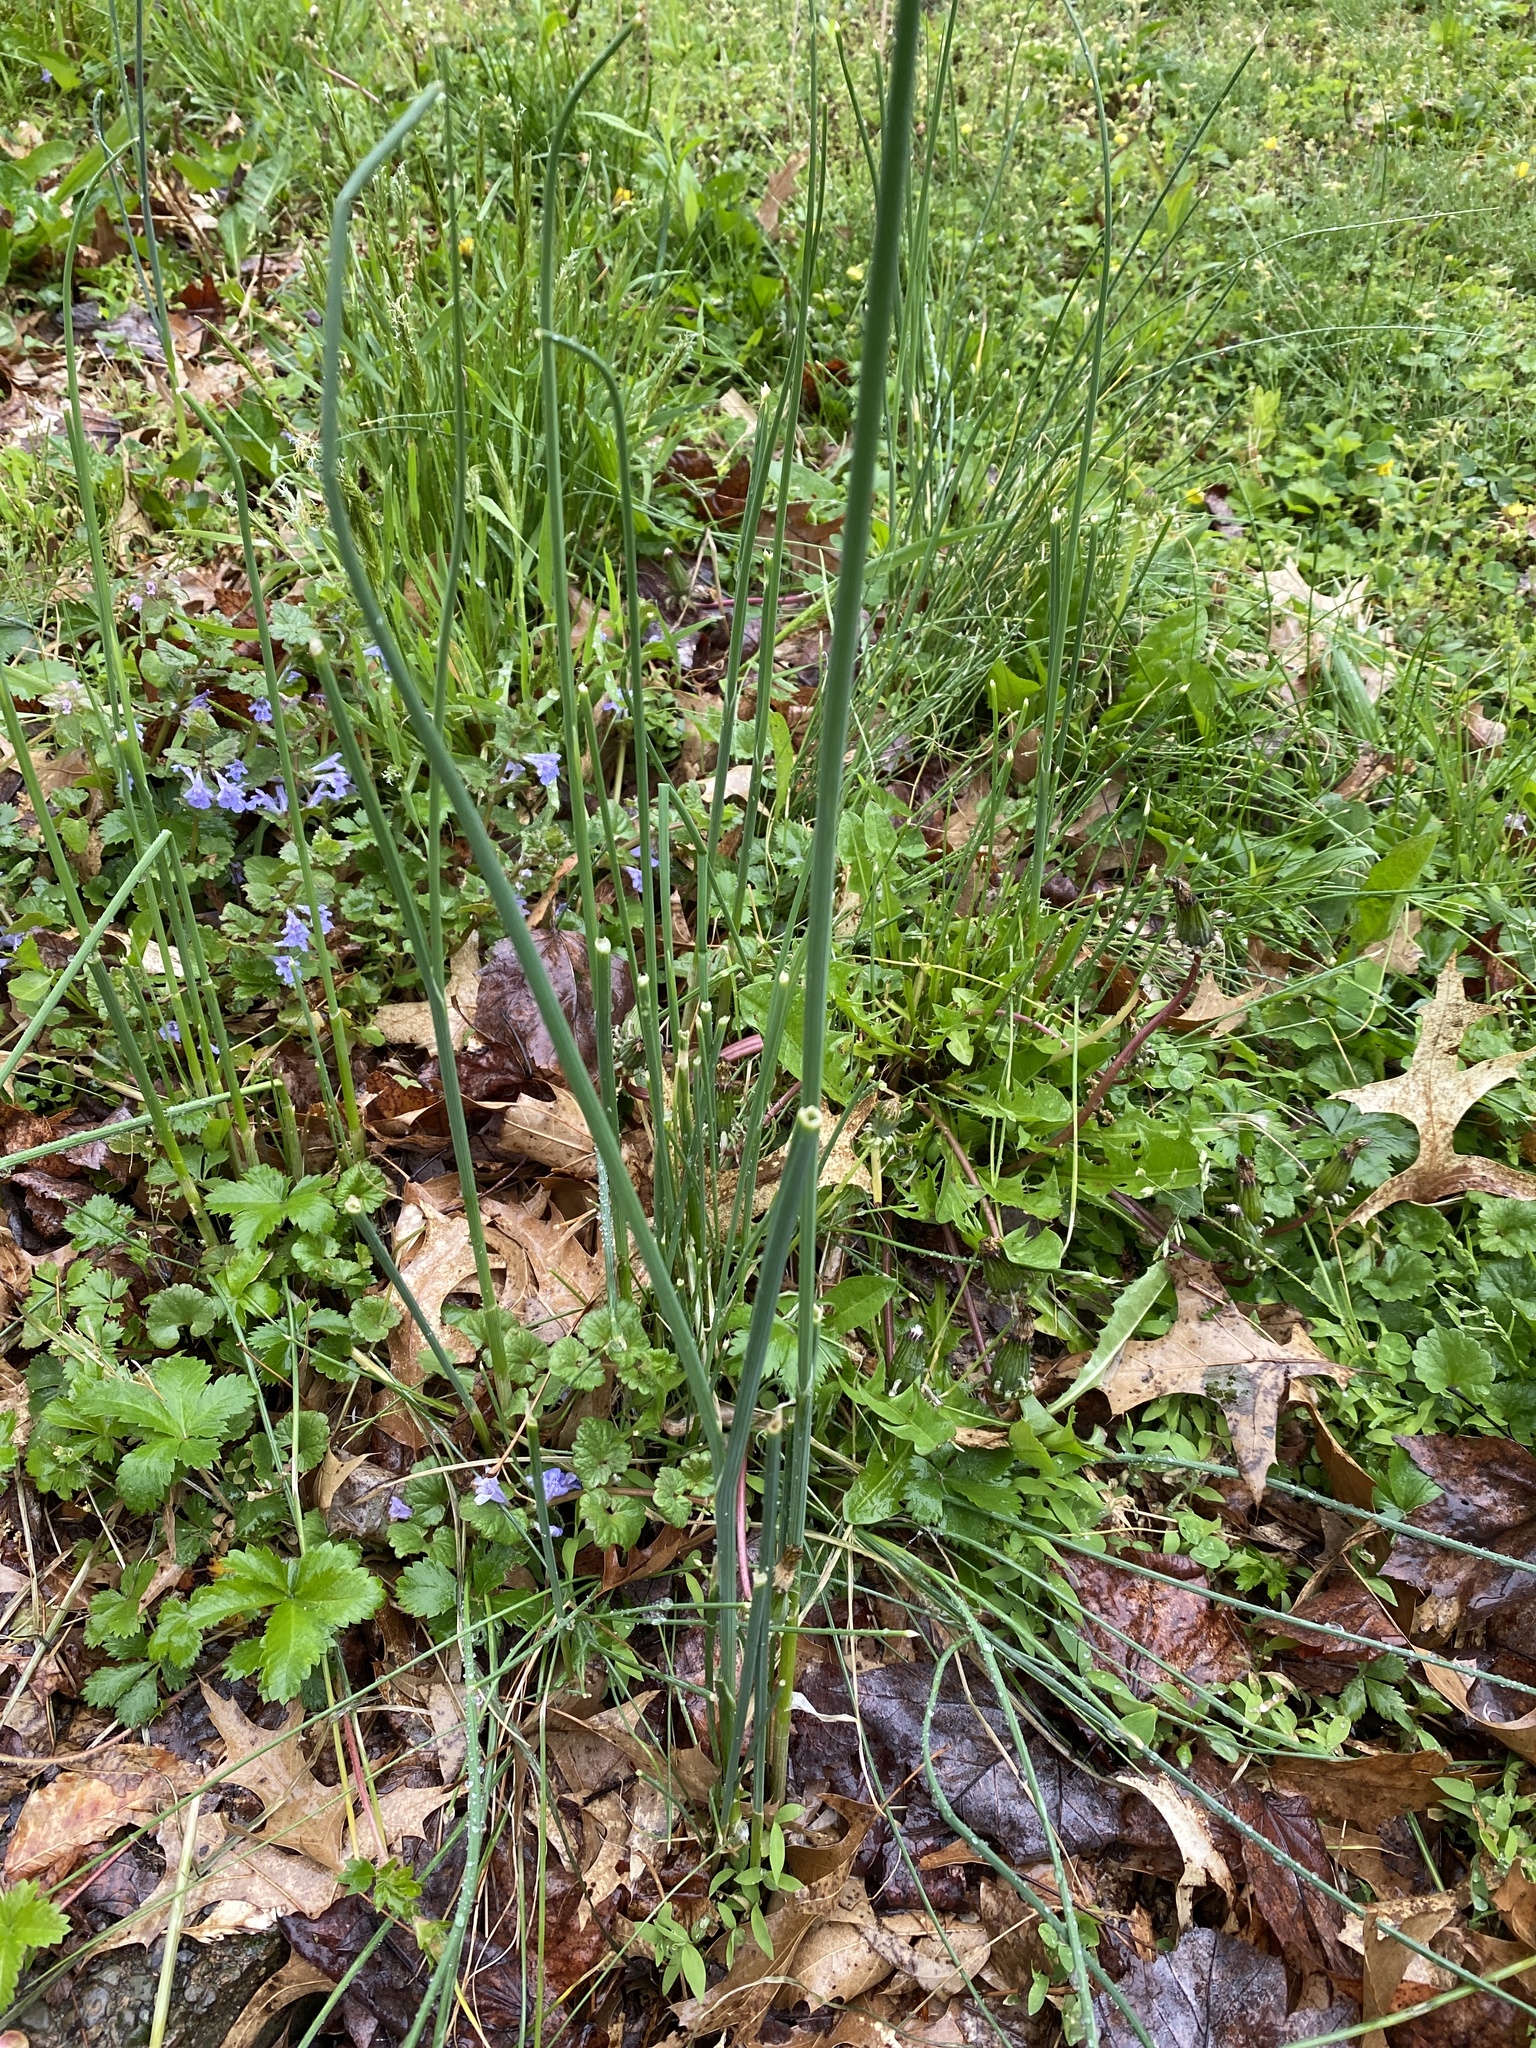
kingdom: Plantae
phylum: Tracheophyta
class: Liliopsida
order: Asparagales
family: Amaryllidaceae
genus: Allium
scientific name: Allium vineale
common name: Crow garlic
